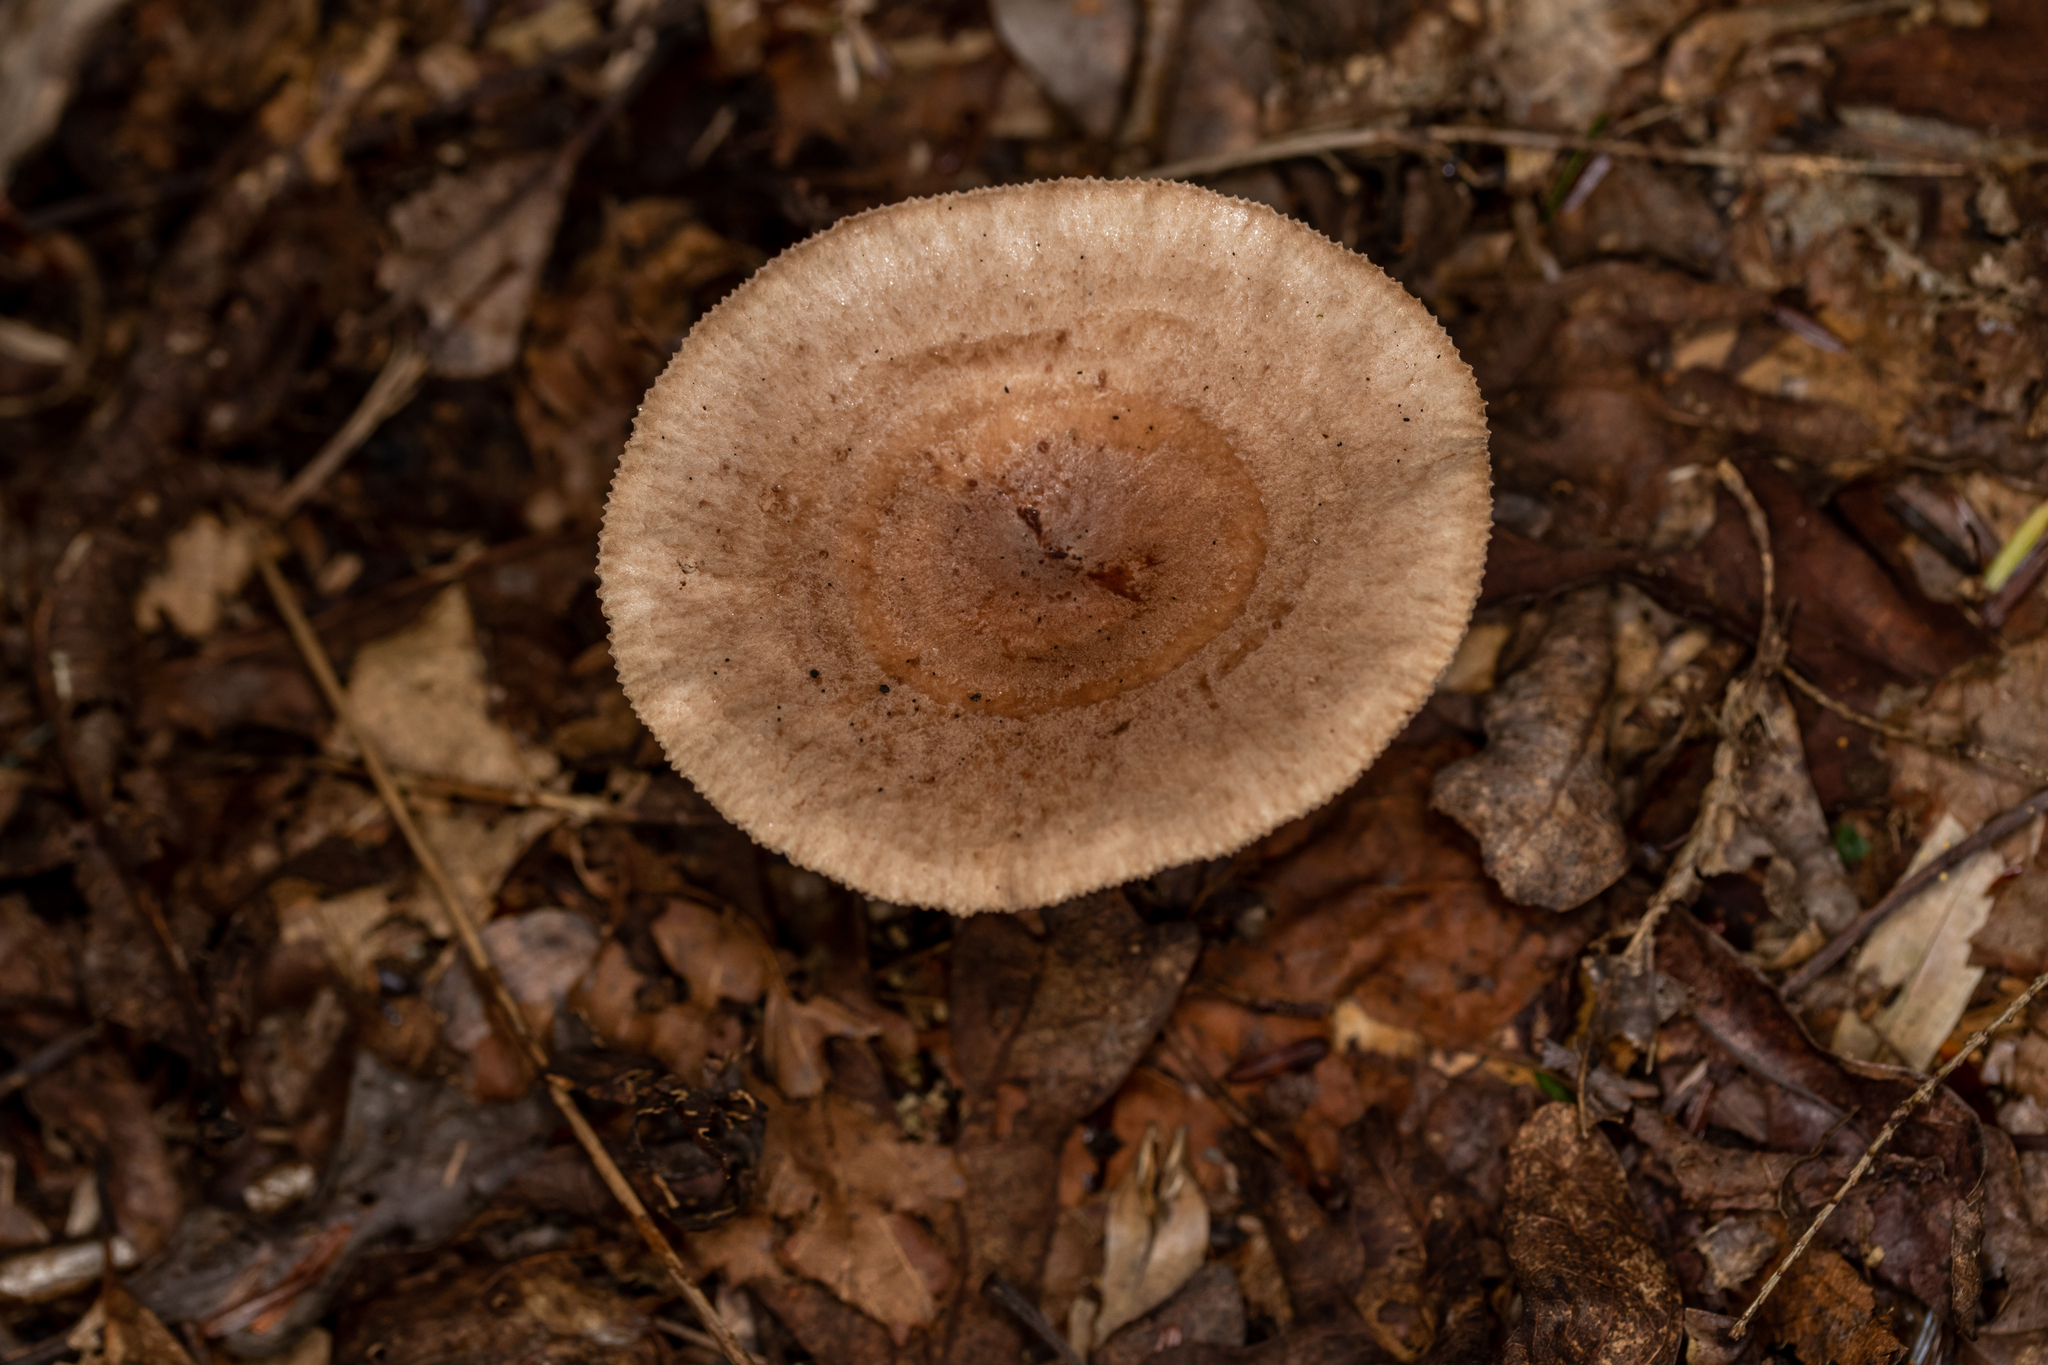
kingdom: Fungi
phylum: Basidiomycota
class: Agaricomycetes
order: Russulales
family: Russulaceae
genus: Lactarius
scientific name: Lactarius quietus
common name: Oak milk-cap
